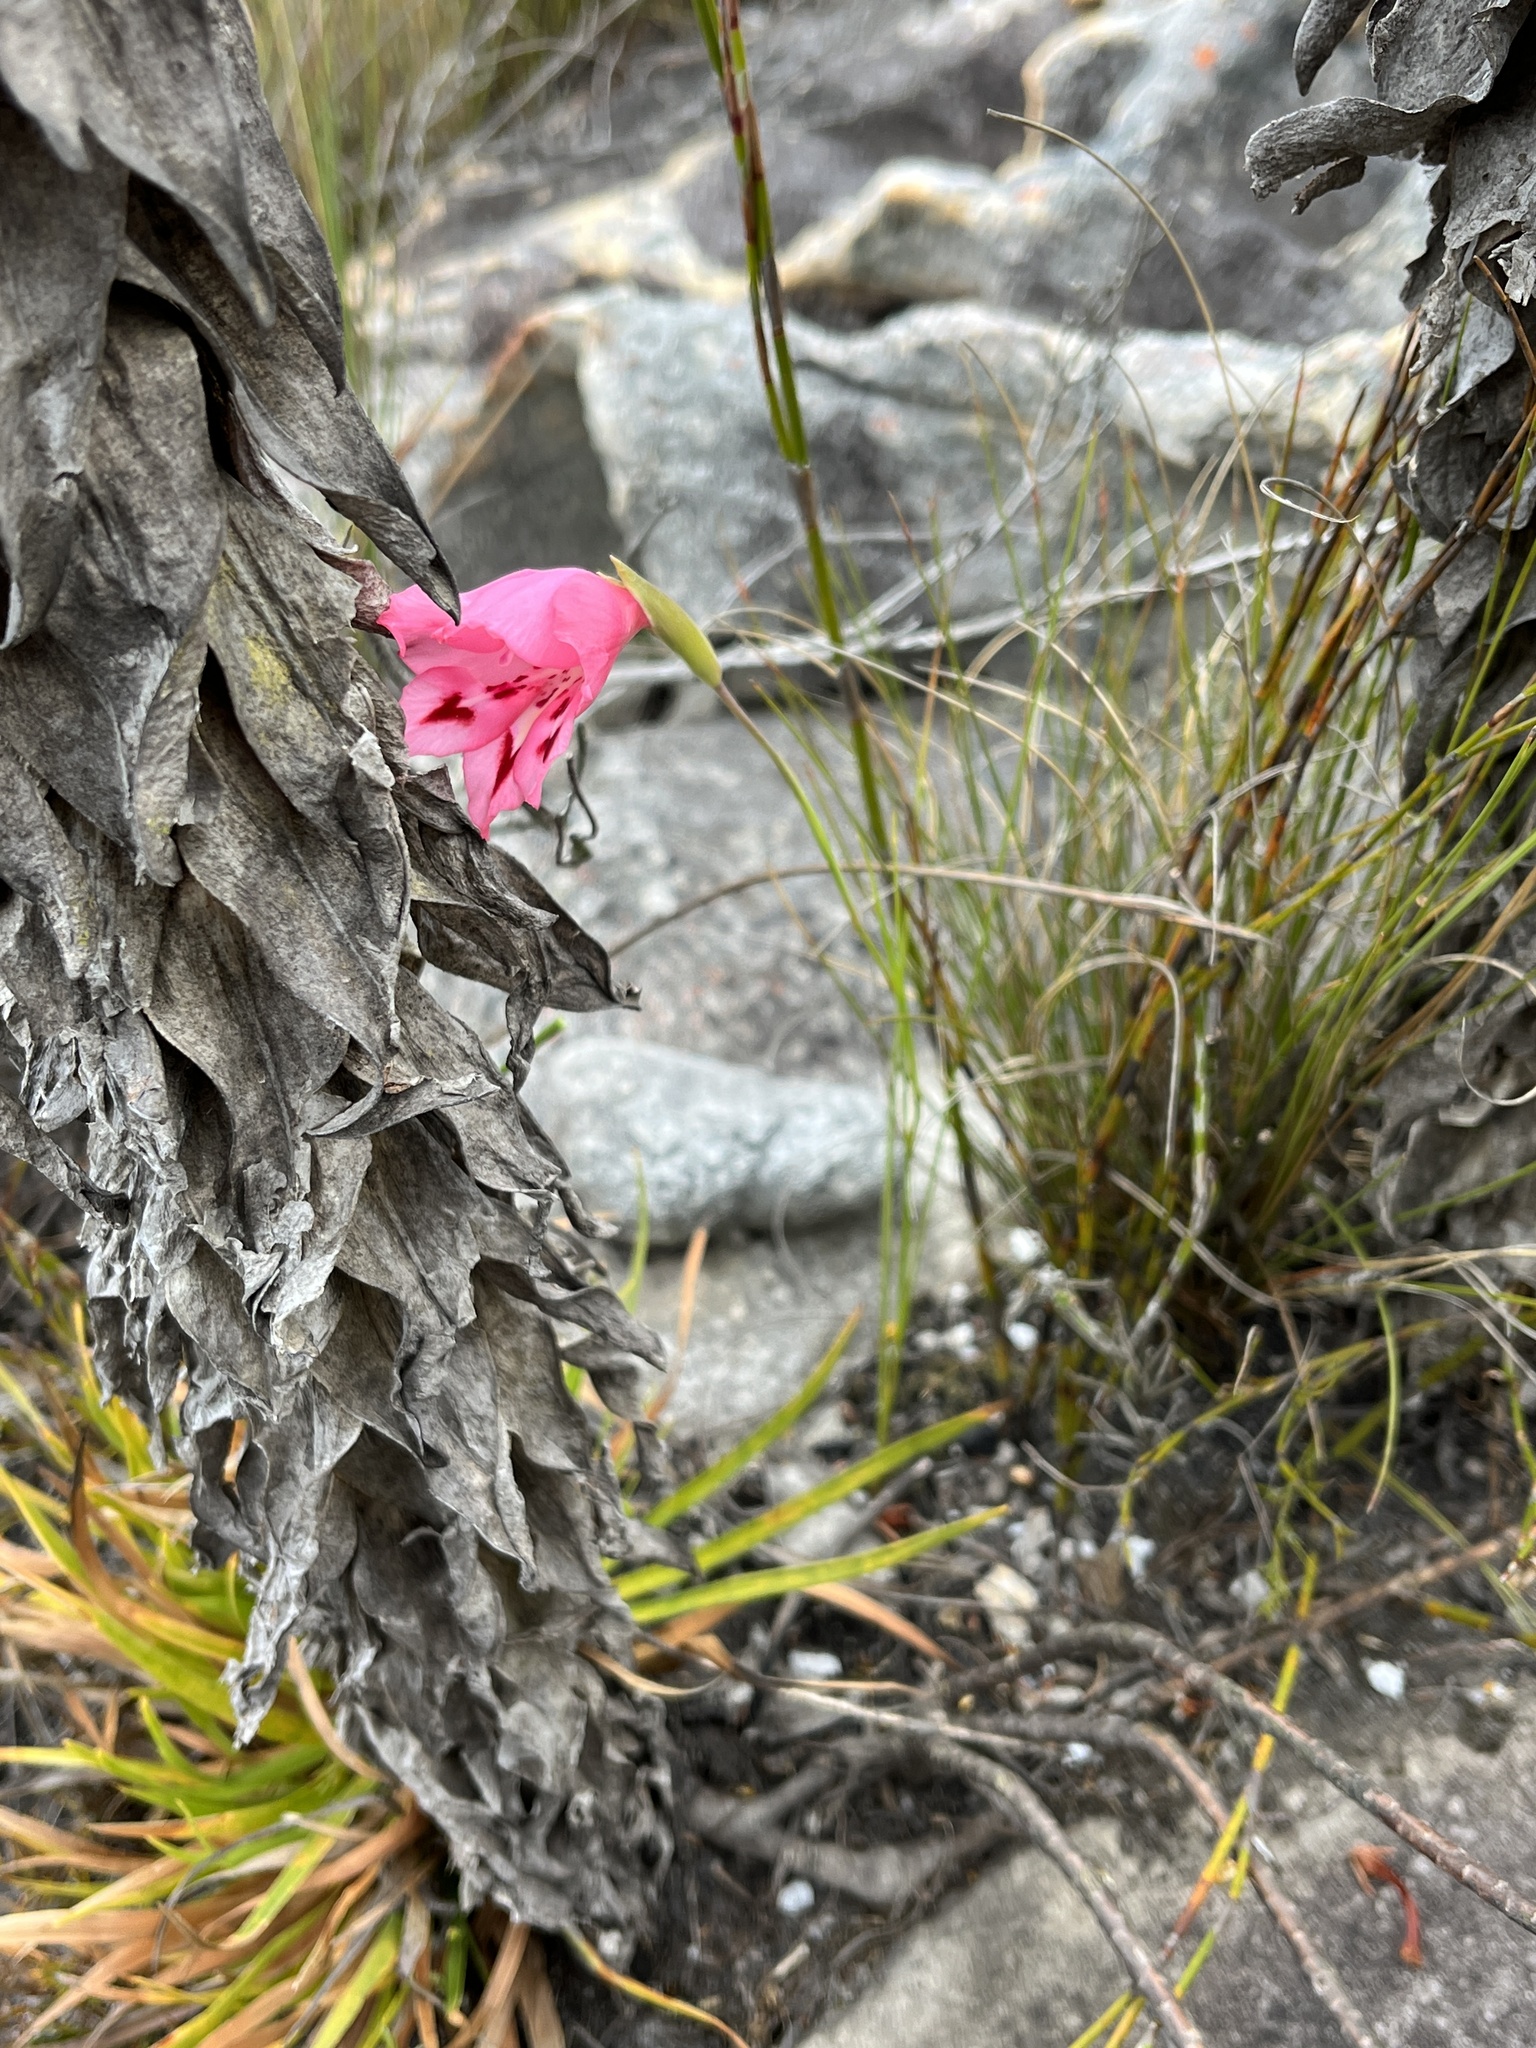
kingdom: Plantae
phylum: Tracheophyta
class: Liliopsida
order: Asparagales
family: Iridaceae
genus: Gladiolus
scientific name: Gladiolus crispulatus
